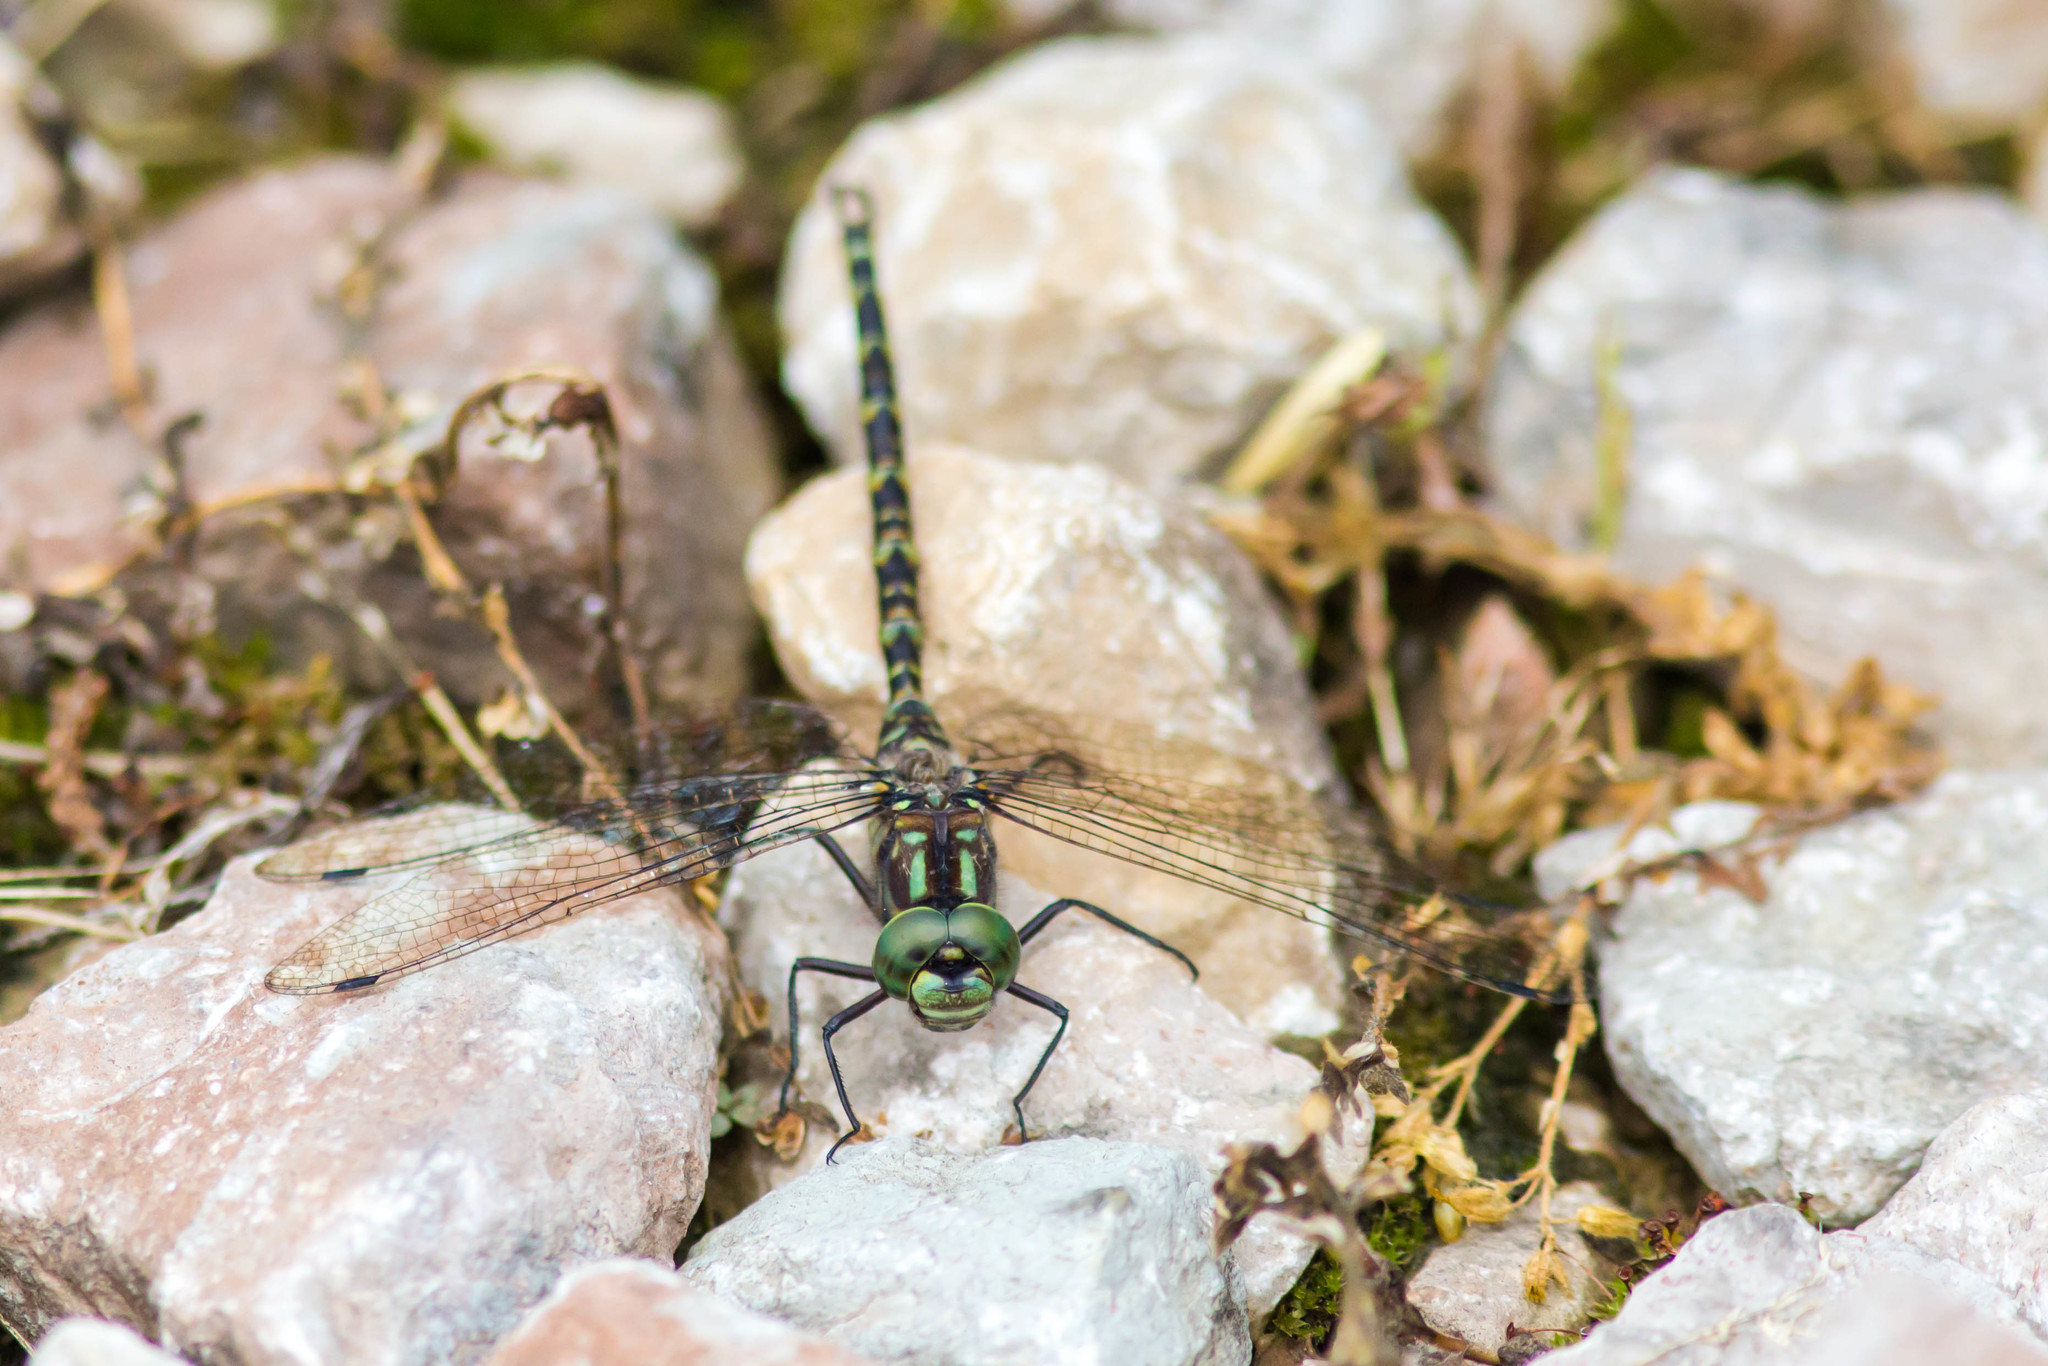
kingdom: Animalia
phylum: Arthropoda
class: Insecta
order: Odonata
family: Aeshnidae
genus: Gomphaeschna
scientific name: Gomphaeschna furcillata
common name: Harlequin darner
